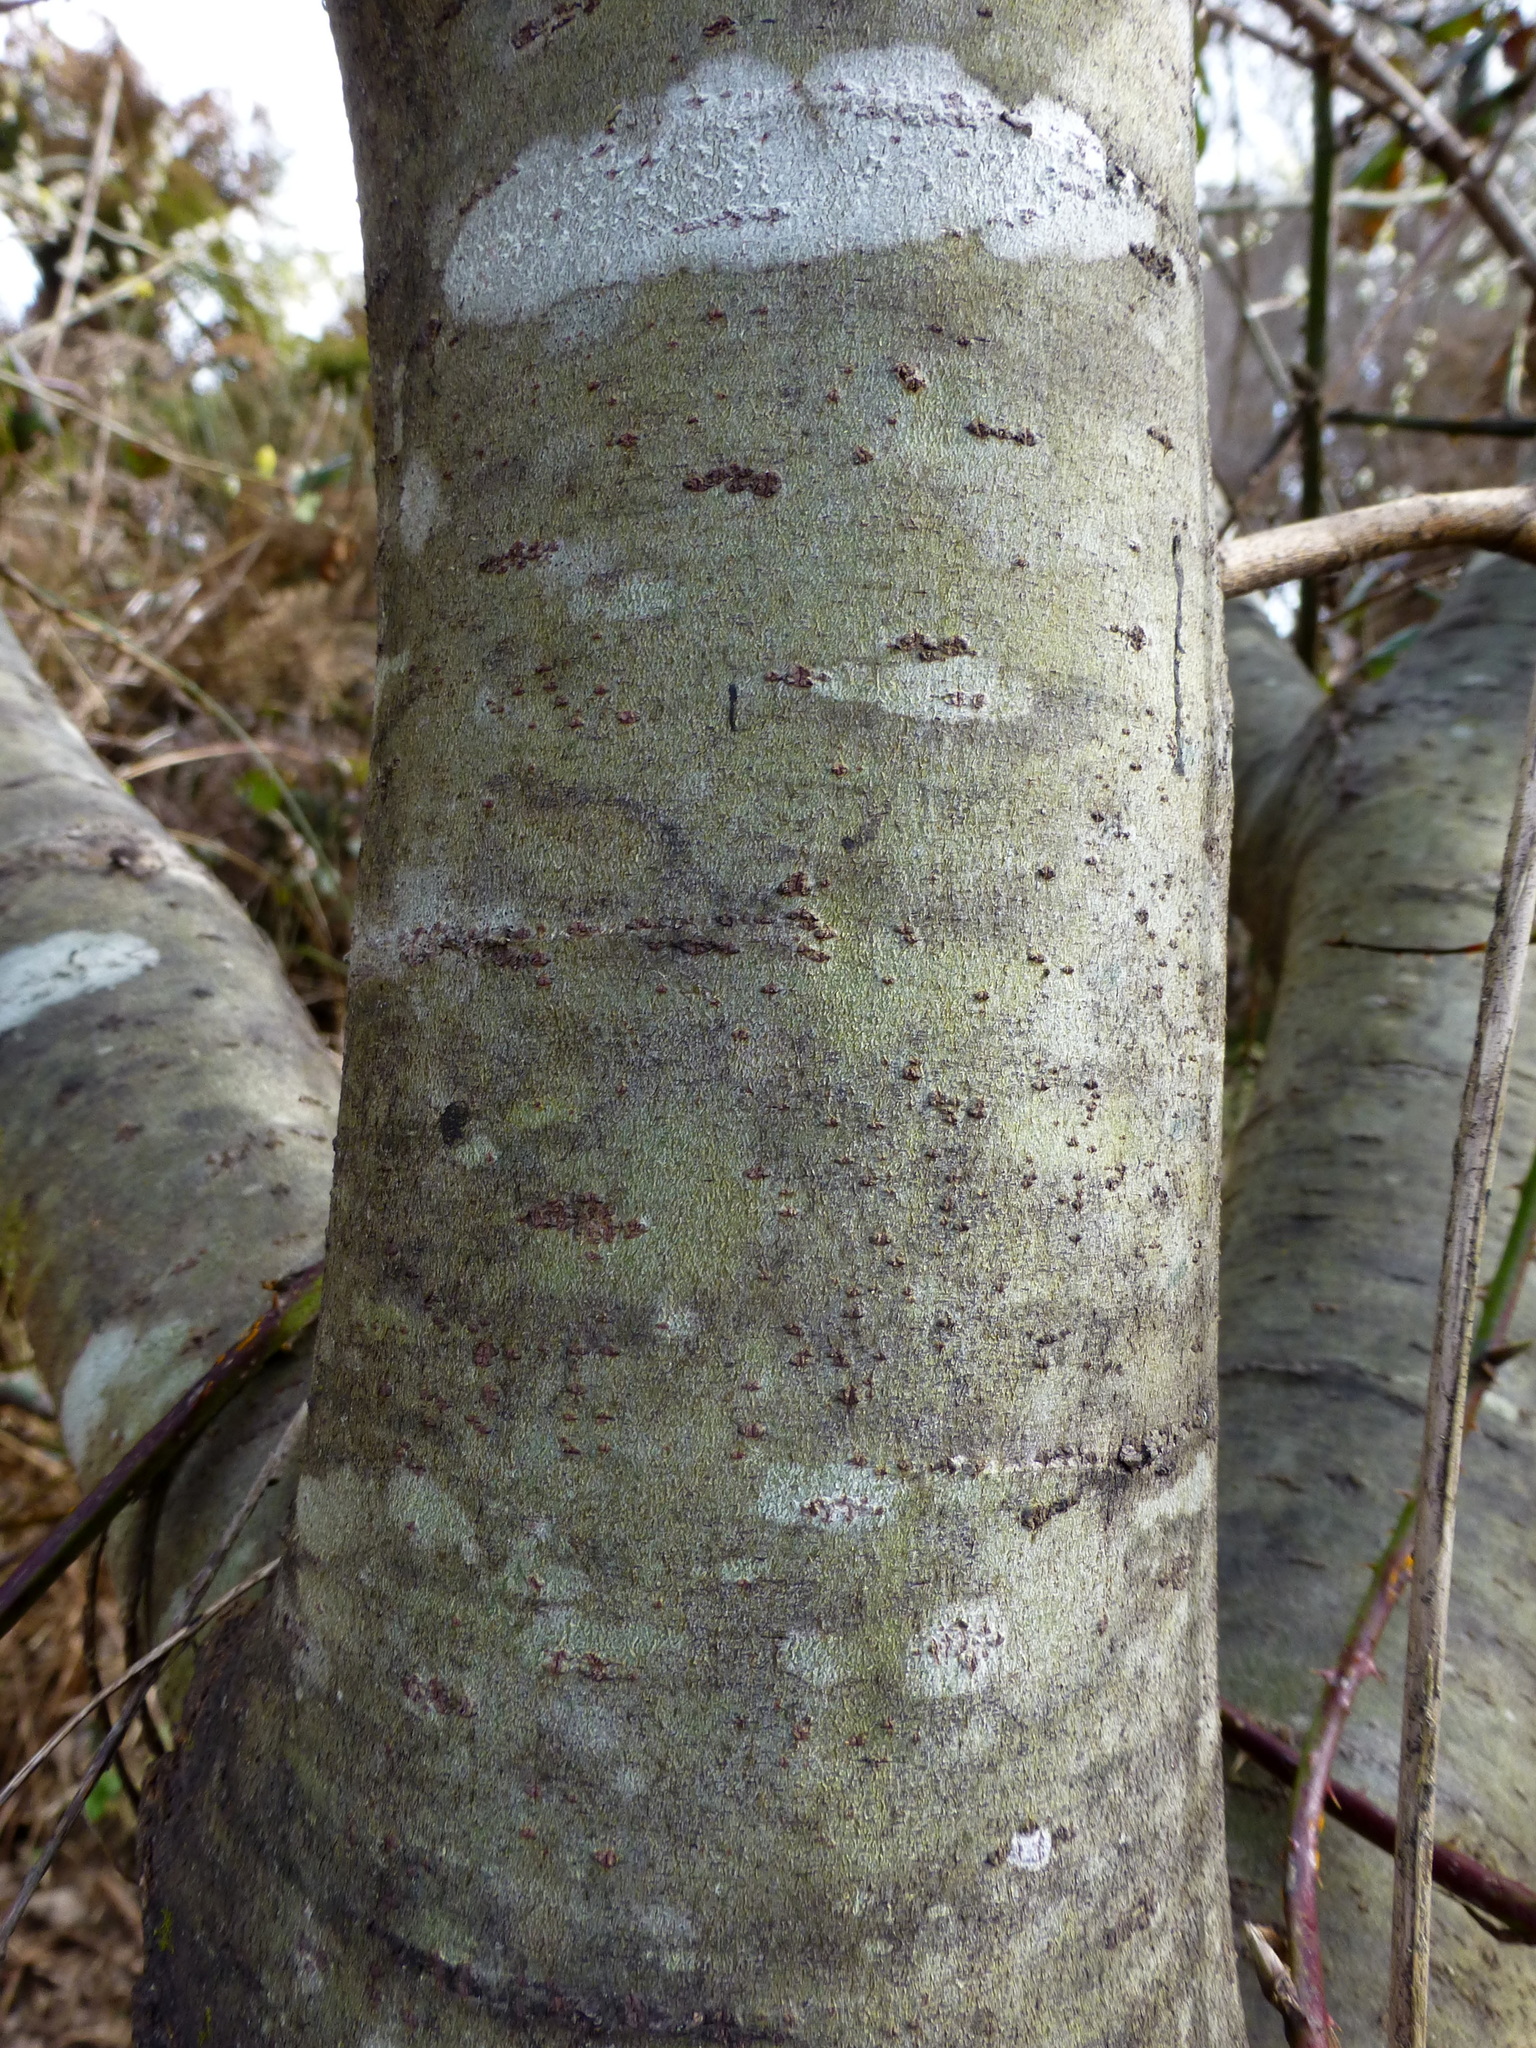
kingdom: Plantae
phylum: Tracheophyta
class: Magnoliopsida
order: Malpighiales
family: Salicaceae
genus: Salix
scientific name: Salix cinerea
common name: Common sallow
